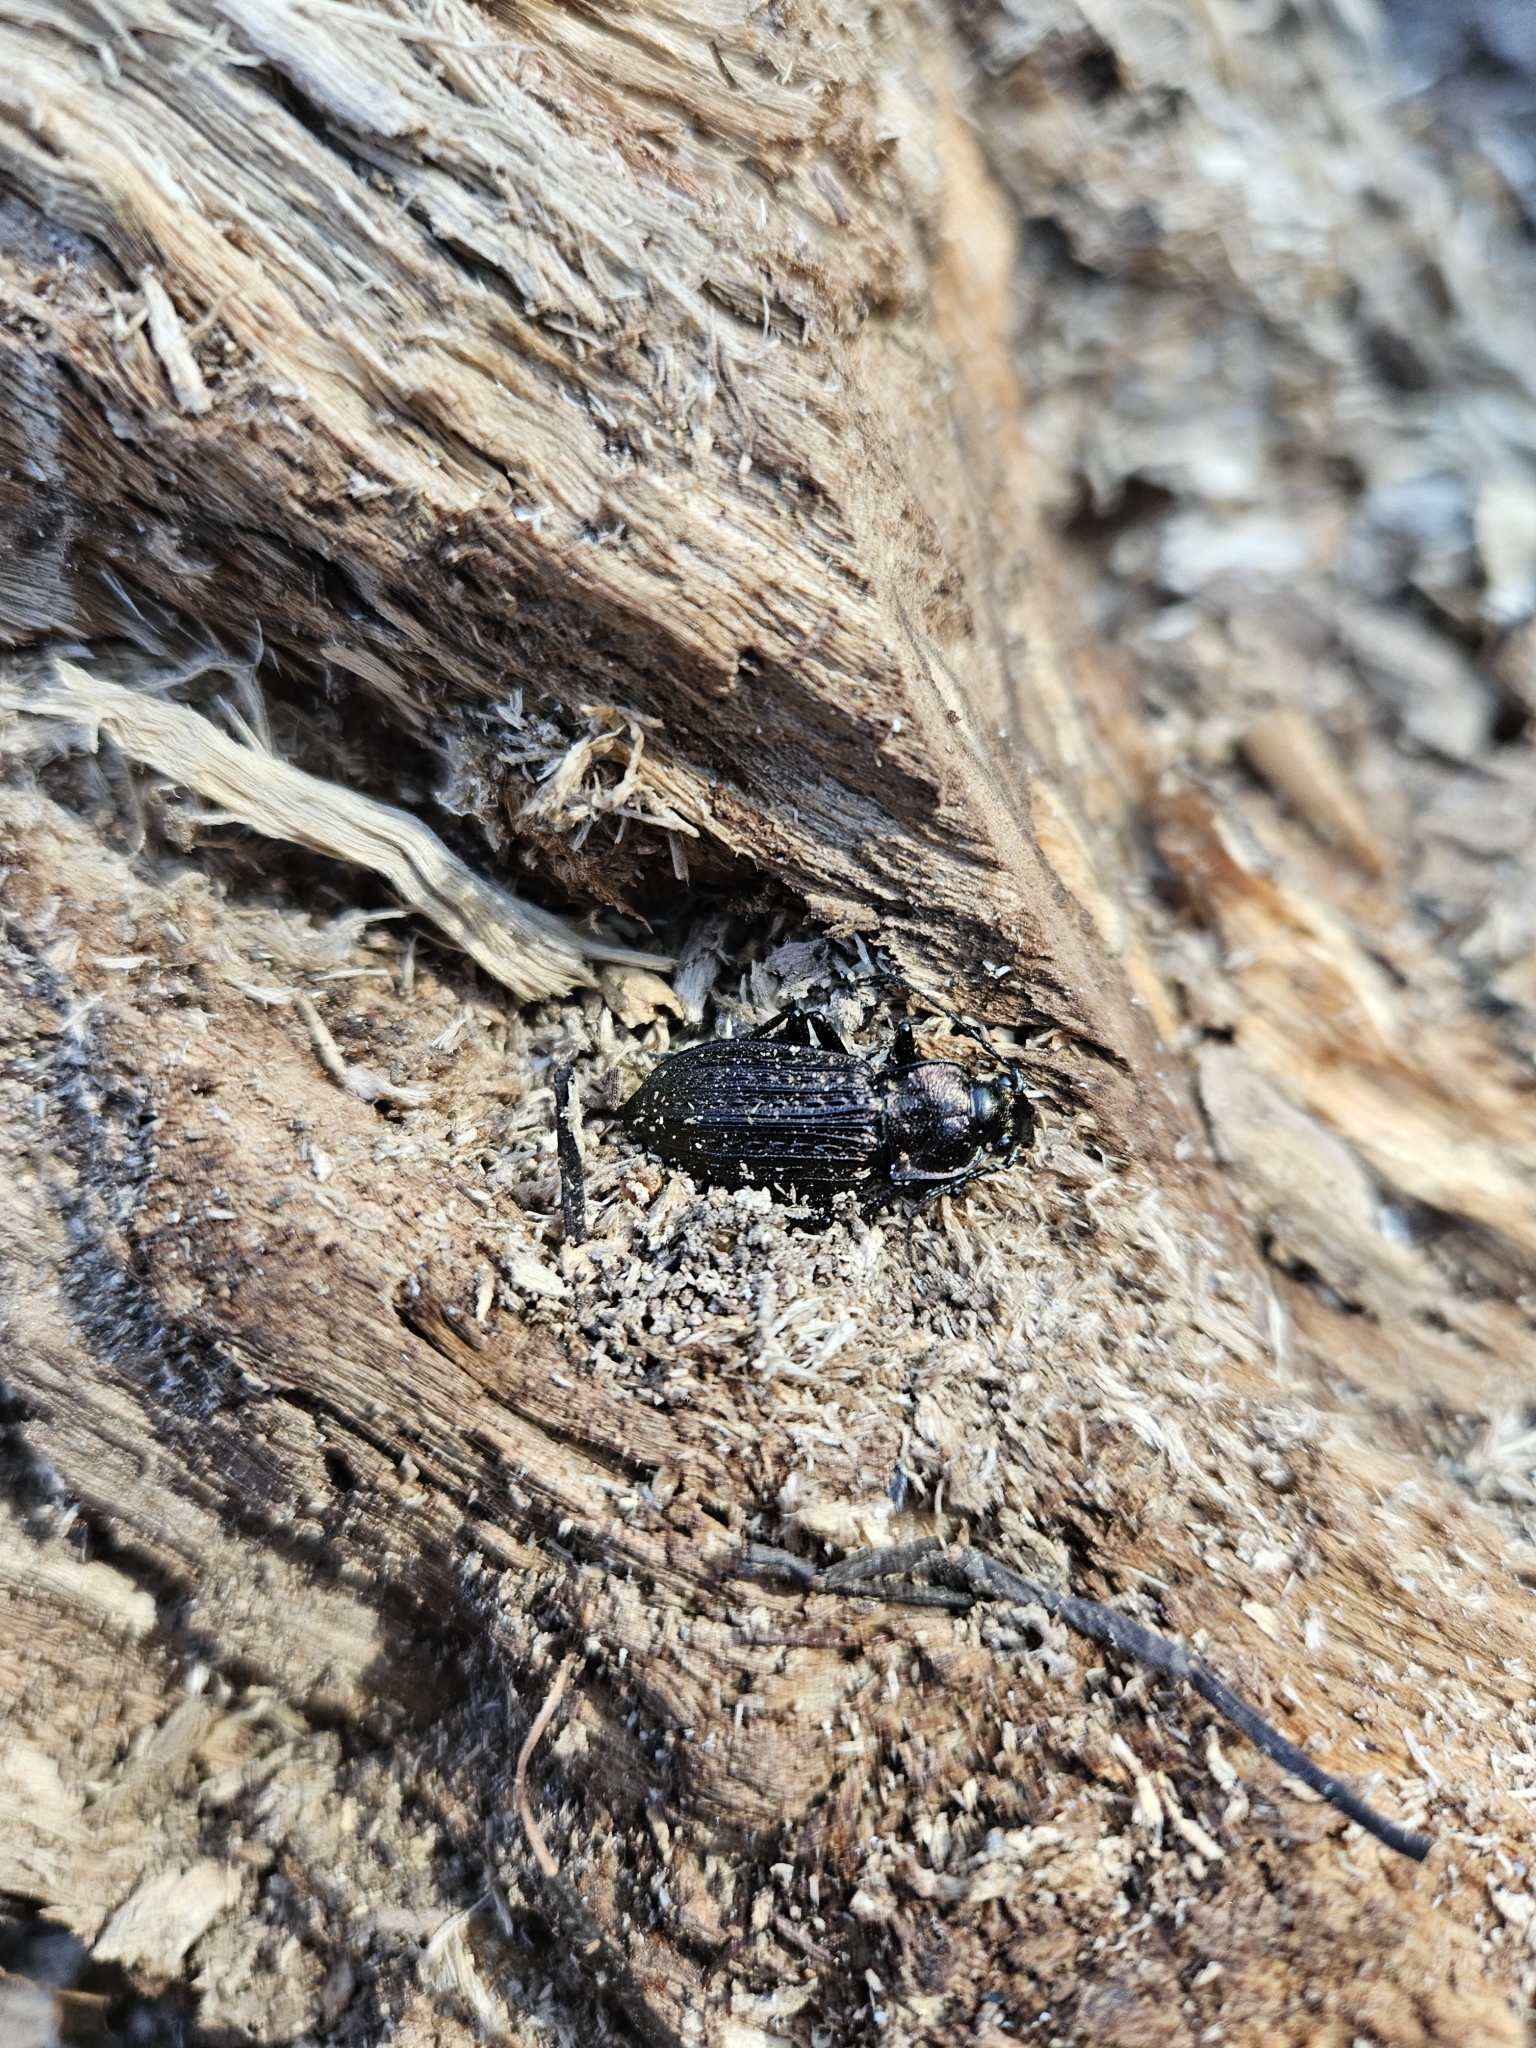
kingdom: Animalia
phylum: Arthropoda
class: Insecta
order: Coleoptera
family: Carabidae
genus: Carabus
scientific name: Carabus granulatus
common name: Granulate ground beetle
